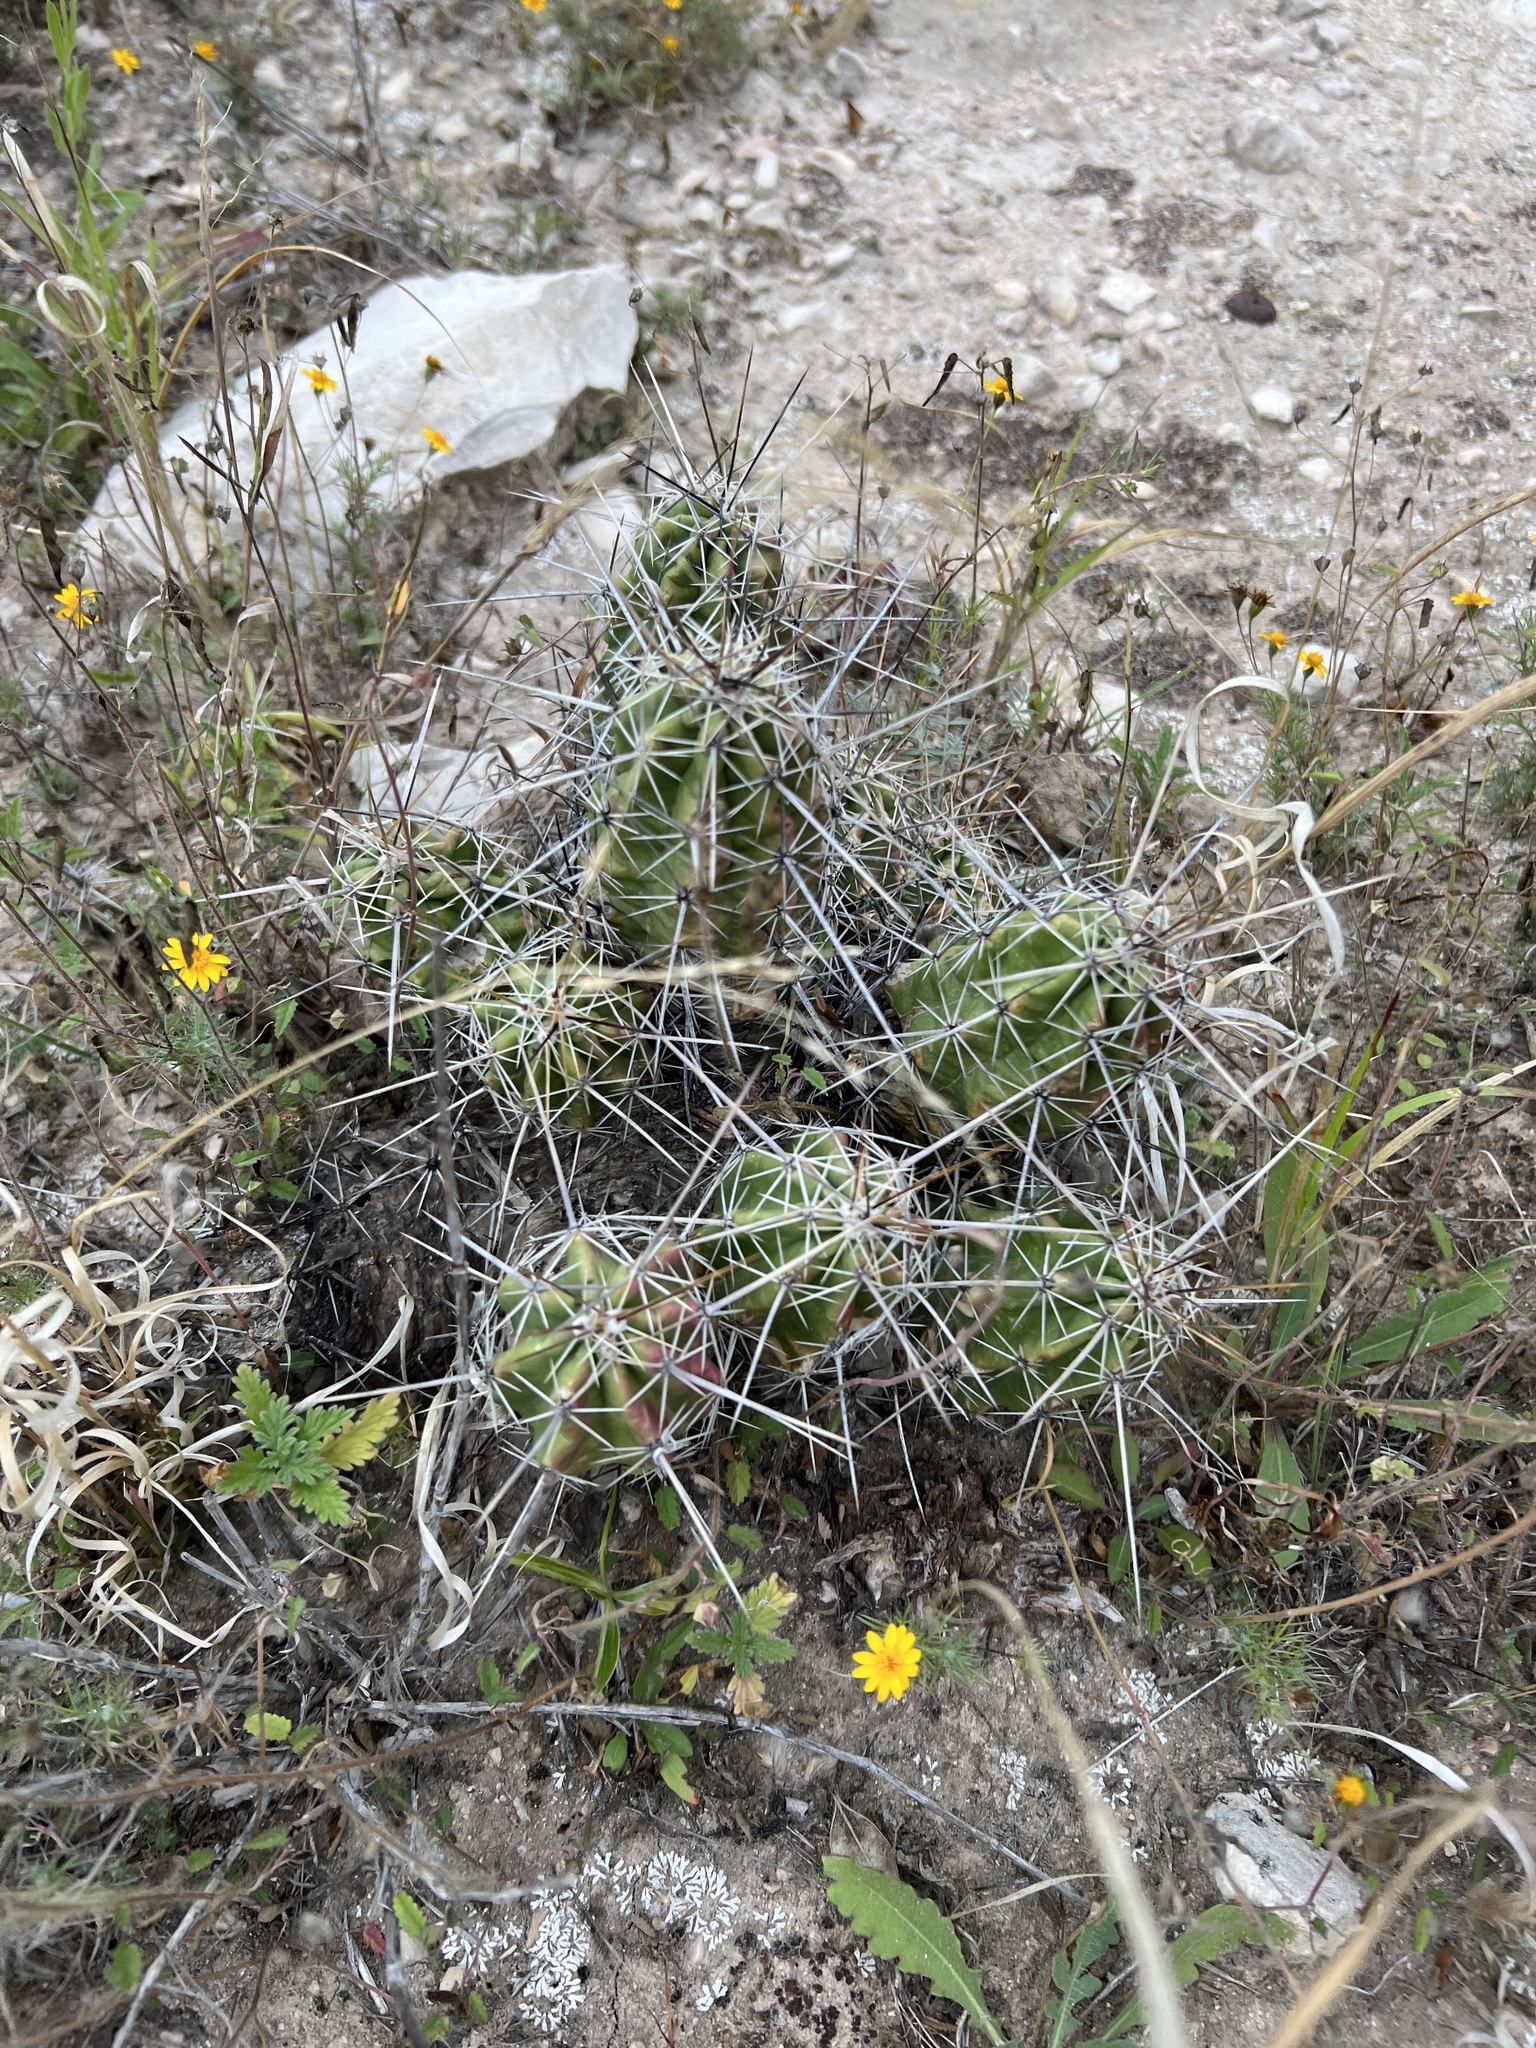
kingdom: Plantae
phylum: Tracheophyta
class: Magnoliopsida
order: Caryophyllales
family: Cactaceae
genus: Echinocereus
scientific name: Echinocereus enneacanthus
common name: Pitaya
